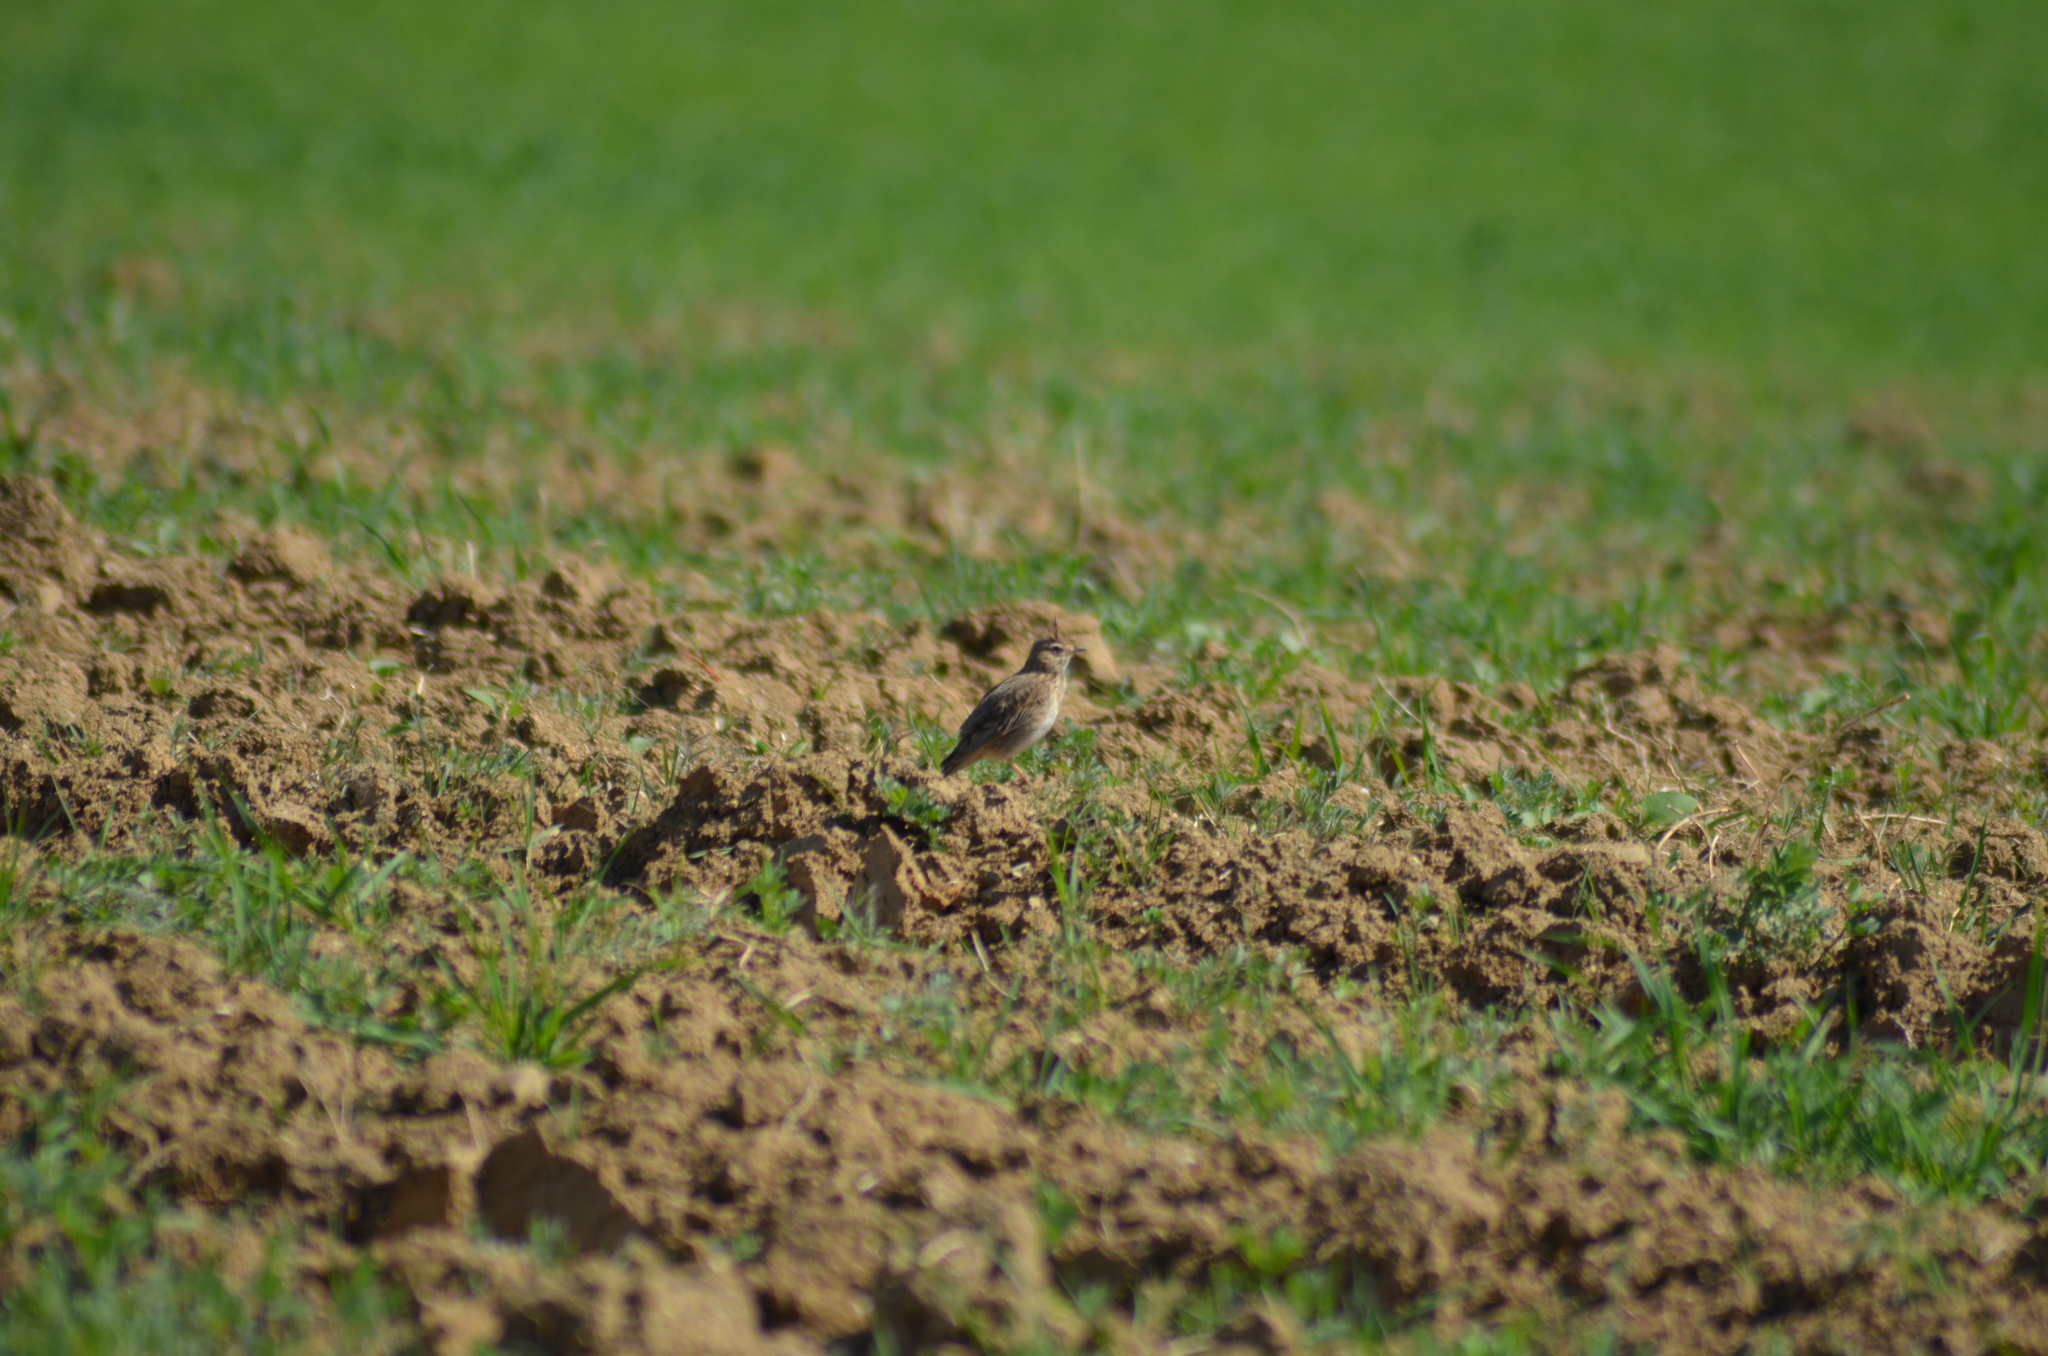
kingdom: Animalia
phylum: Chordata
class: Aves
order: Passeriformes
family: Alaudidae
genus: Galerida
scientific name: Galerida cristata
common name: Crested lark
